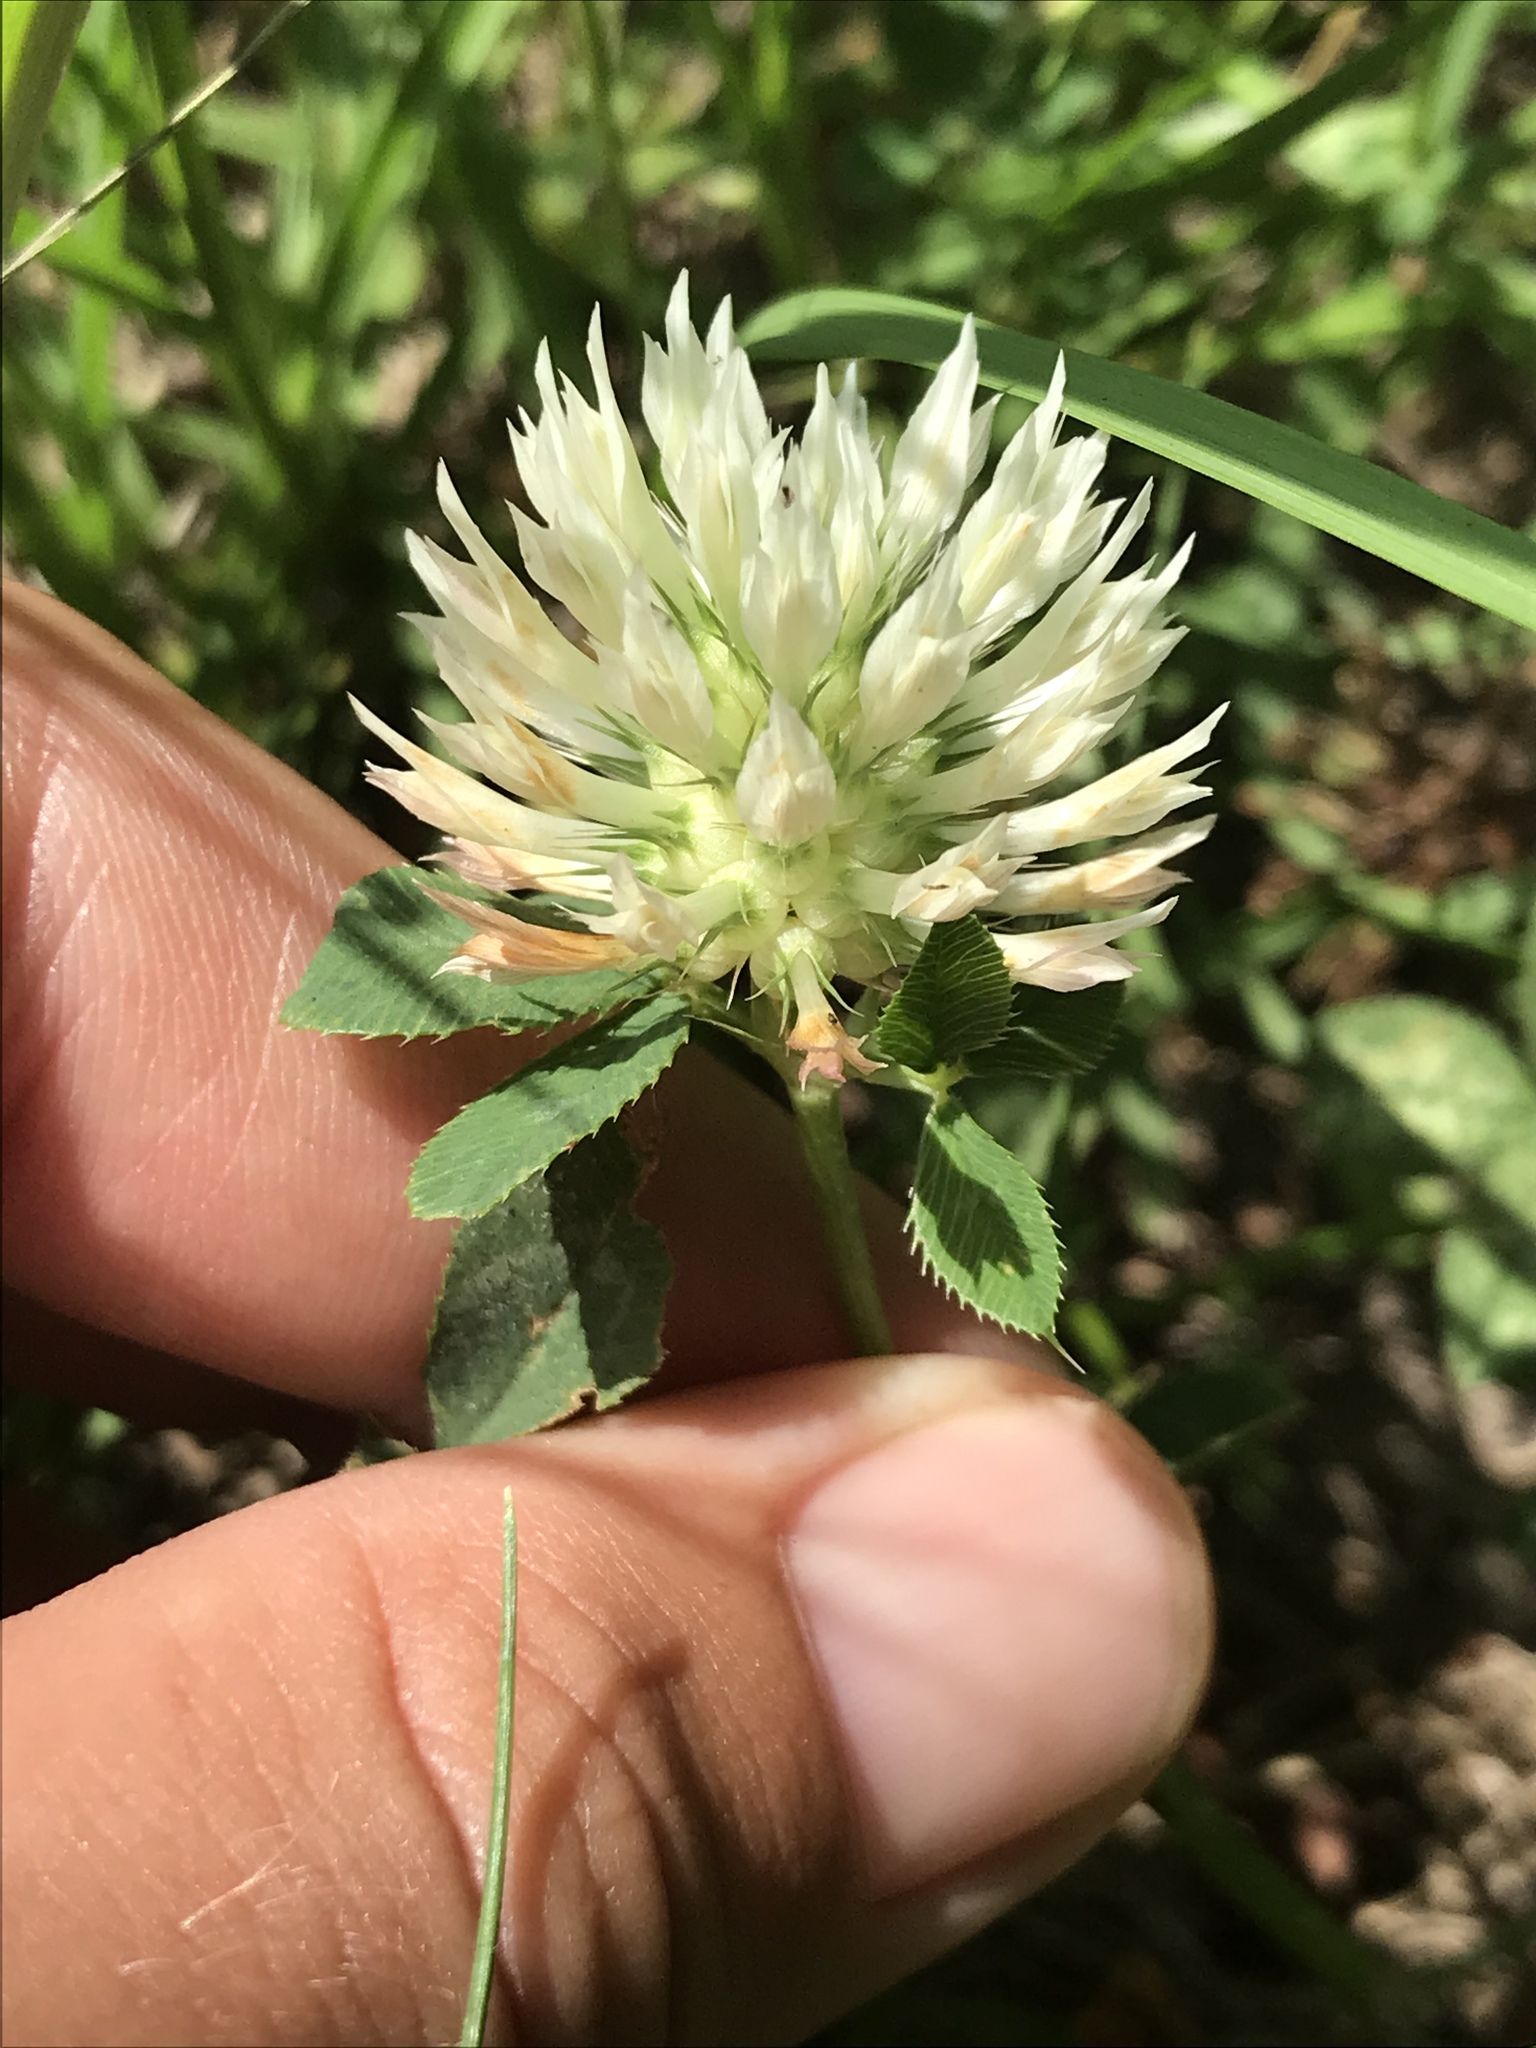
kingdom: Plantae
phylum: Tracheophyta
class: Magnoliopsida
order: Fabales
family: Fabaceae
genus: Trifolium
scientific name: Trifolium repens
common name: White clover
